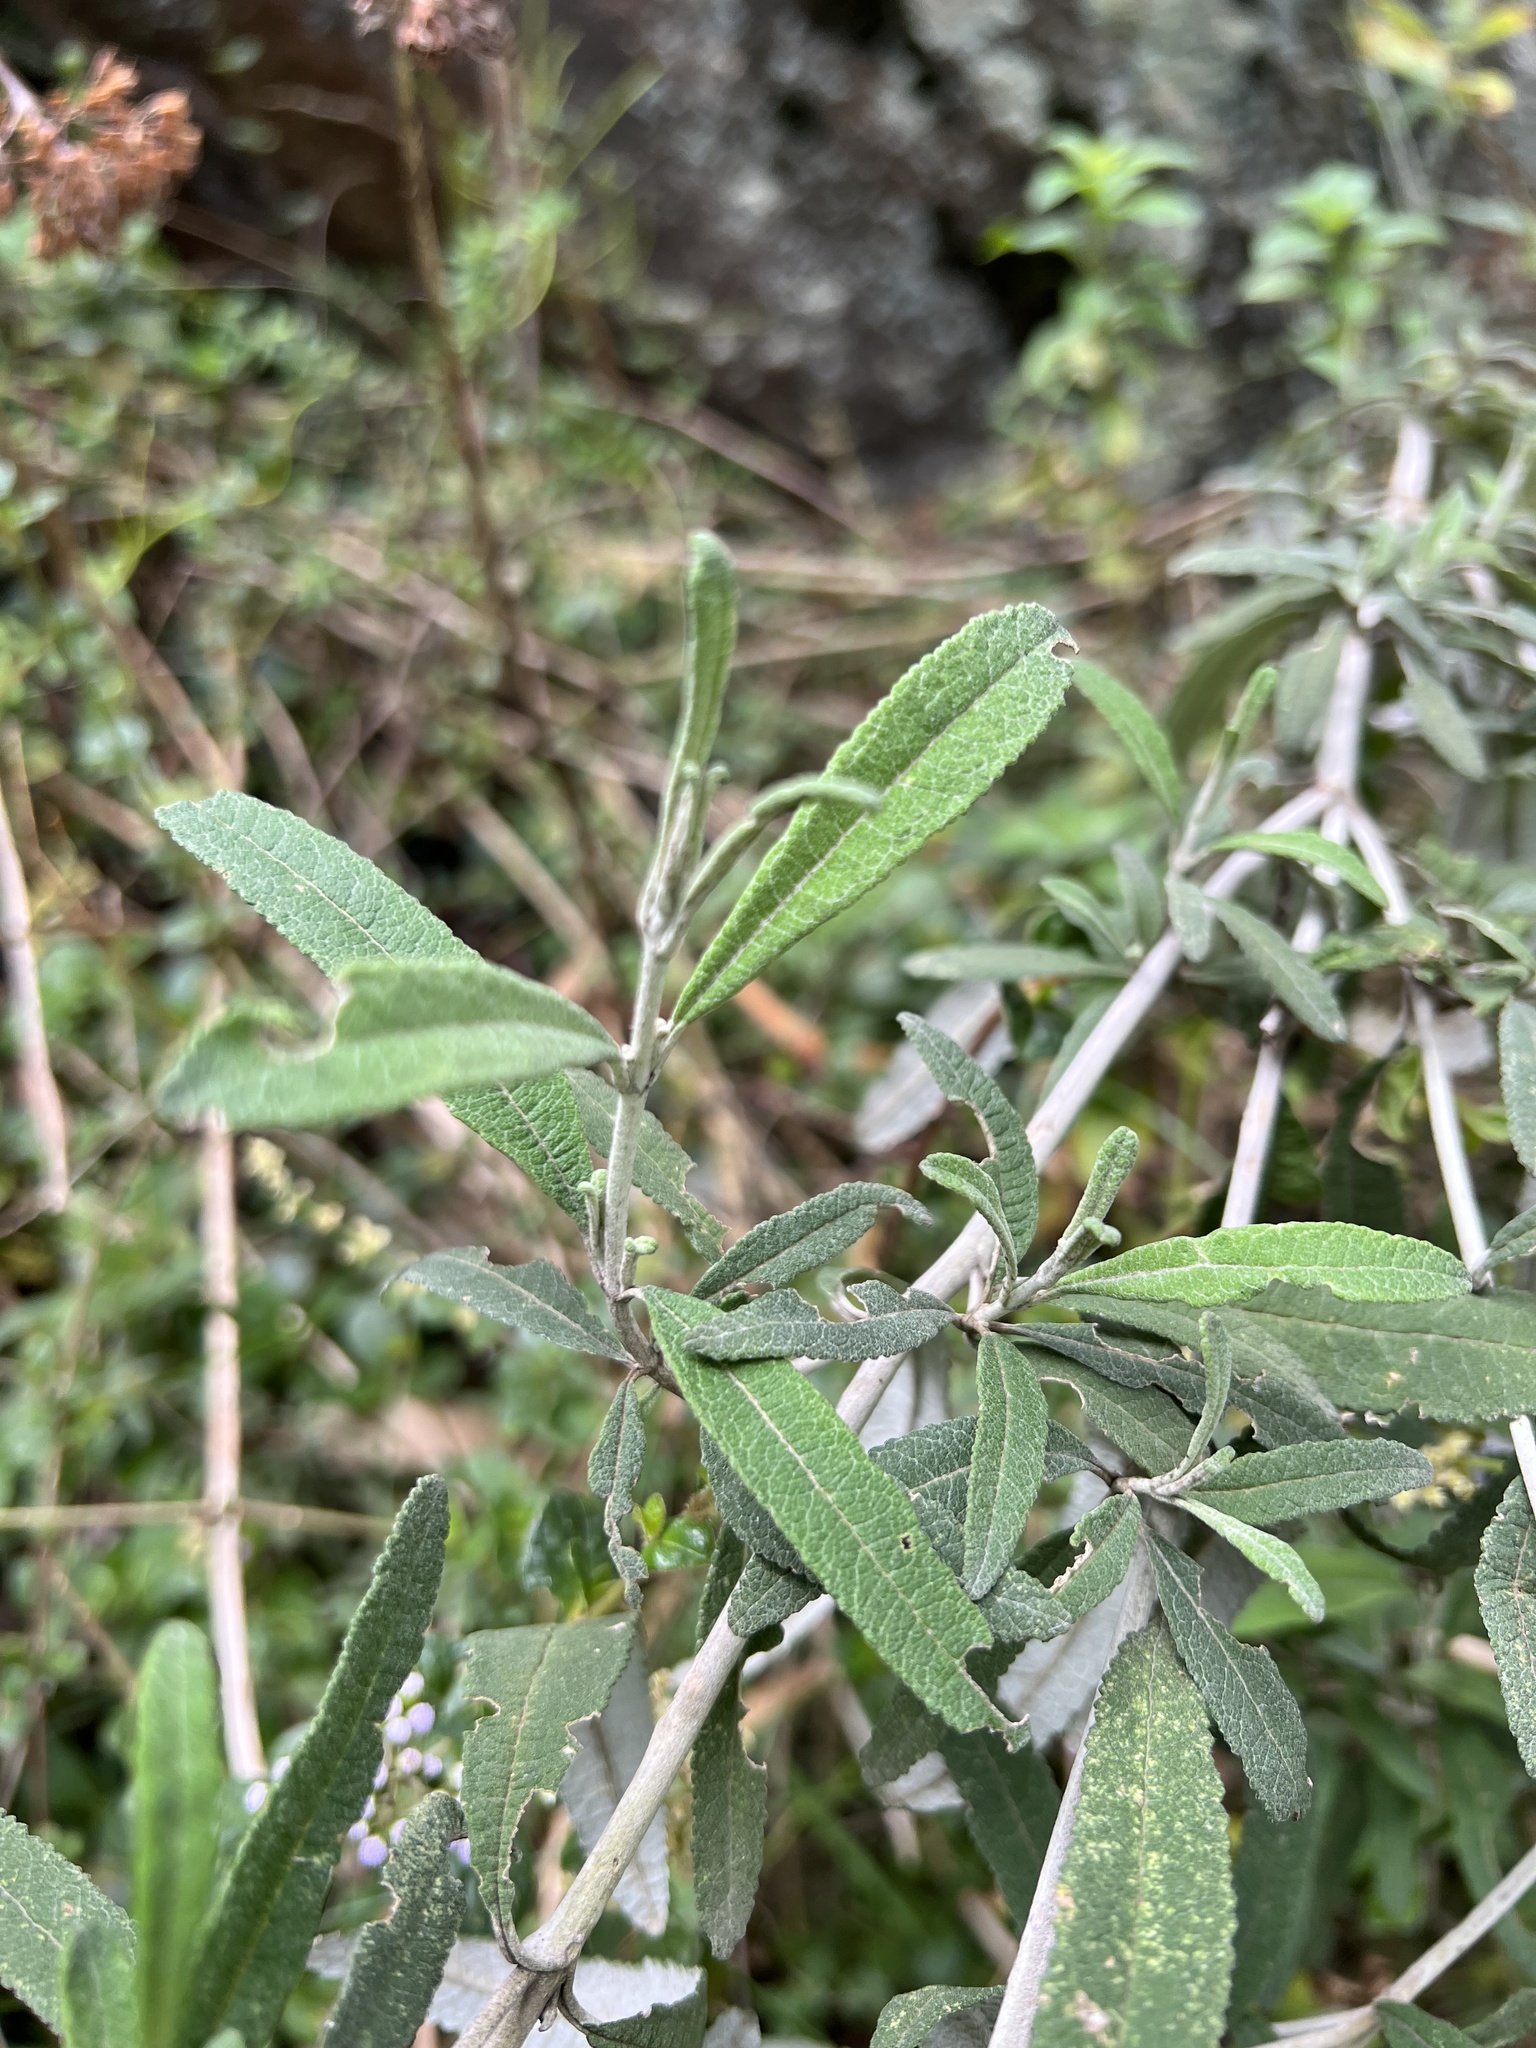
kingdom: Plantae
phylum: Tracheophyta
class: Magnoliopsida
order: Asterales
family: Asteraceae
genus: Lourteigia
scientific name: Lourteigia stoechadifolia
